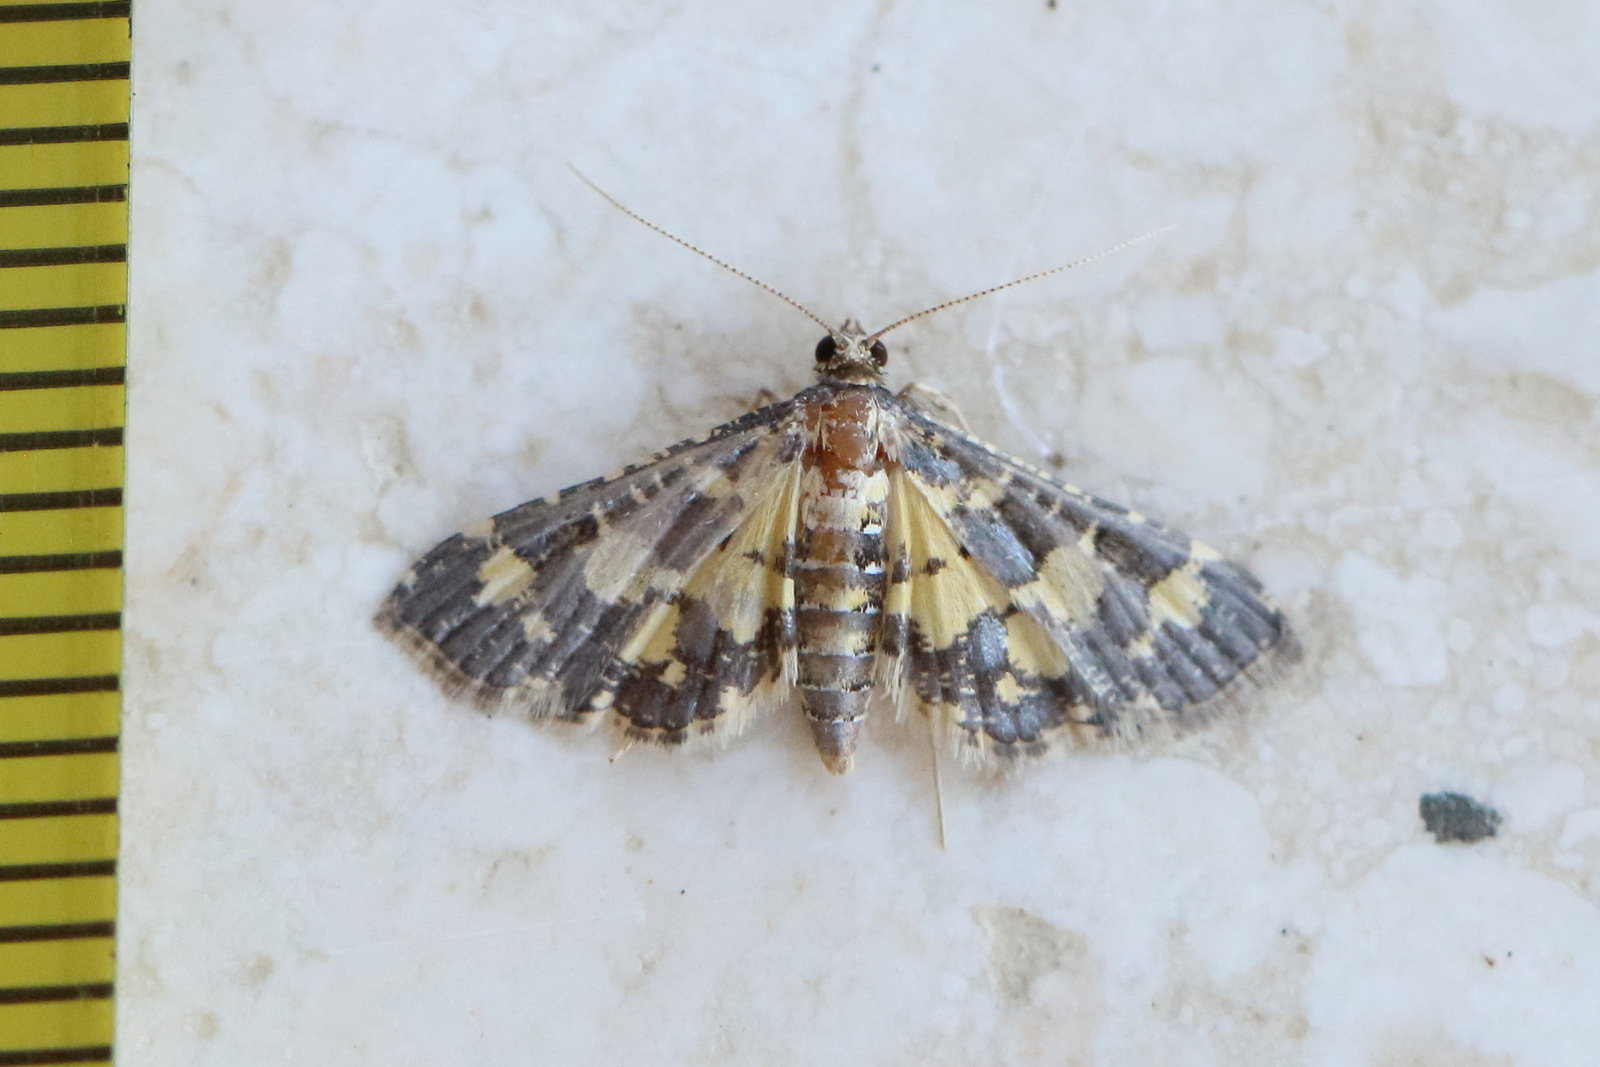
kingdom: Animalia
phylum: Arthropoda
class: Insecta
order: Lepidoptera
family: Crambidae
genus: Eurrhyparodes
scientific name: Eurrhyparodes bracteolalis
